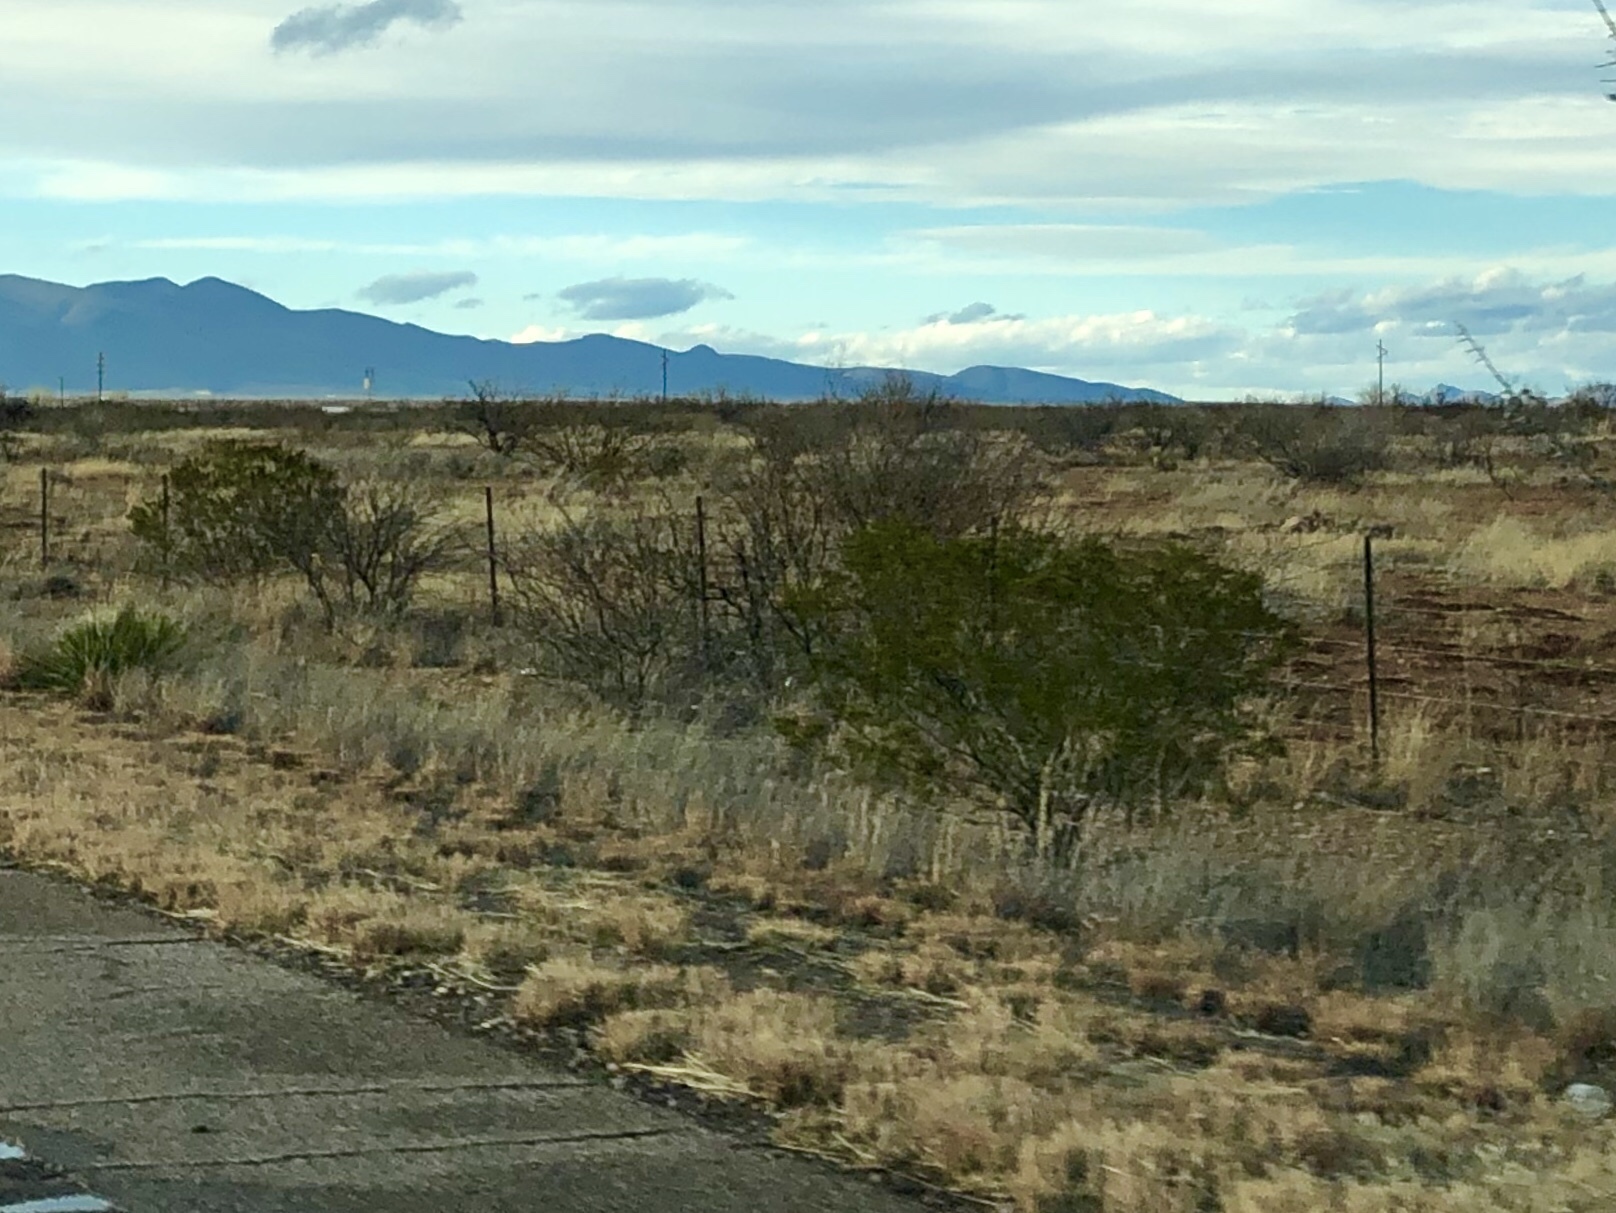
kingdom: Plantae
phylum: Tracheophyta
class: Magnoliopsida
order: Zygophyllales
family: Zygophyllaceae
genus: Larrea
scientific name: Larrea tridentata
